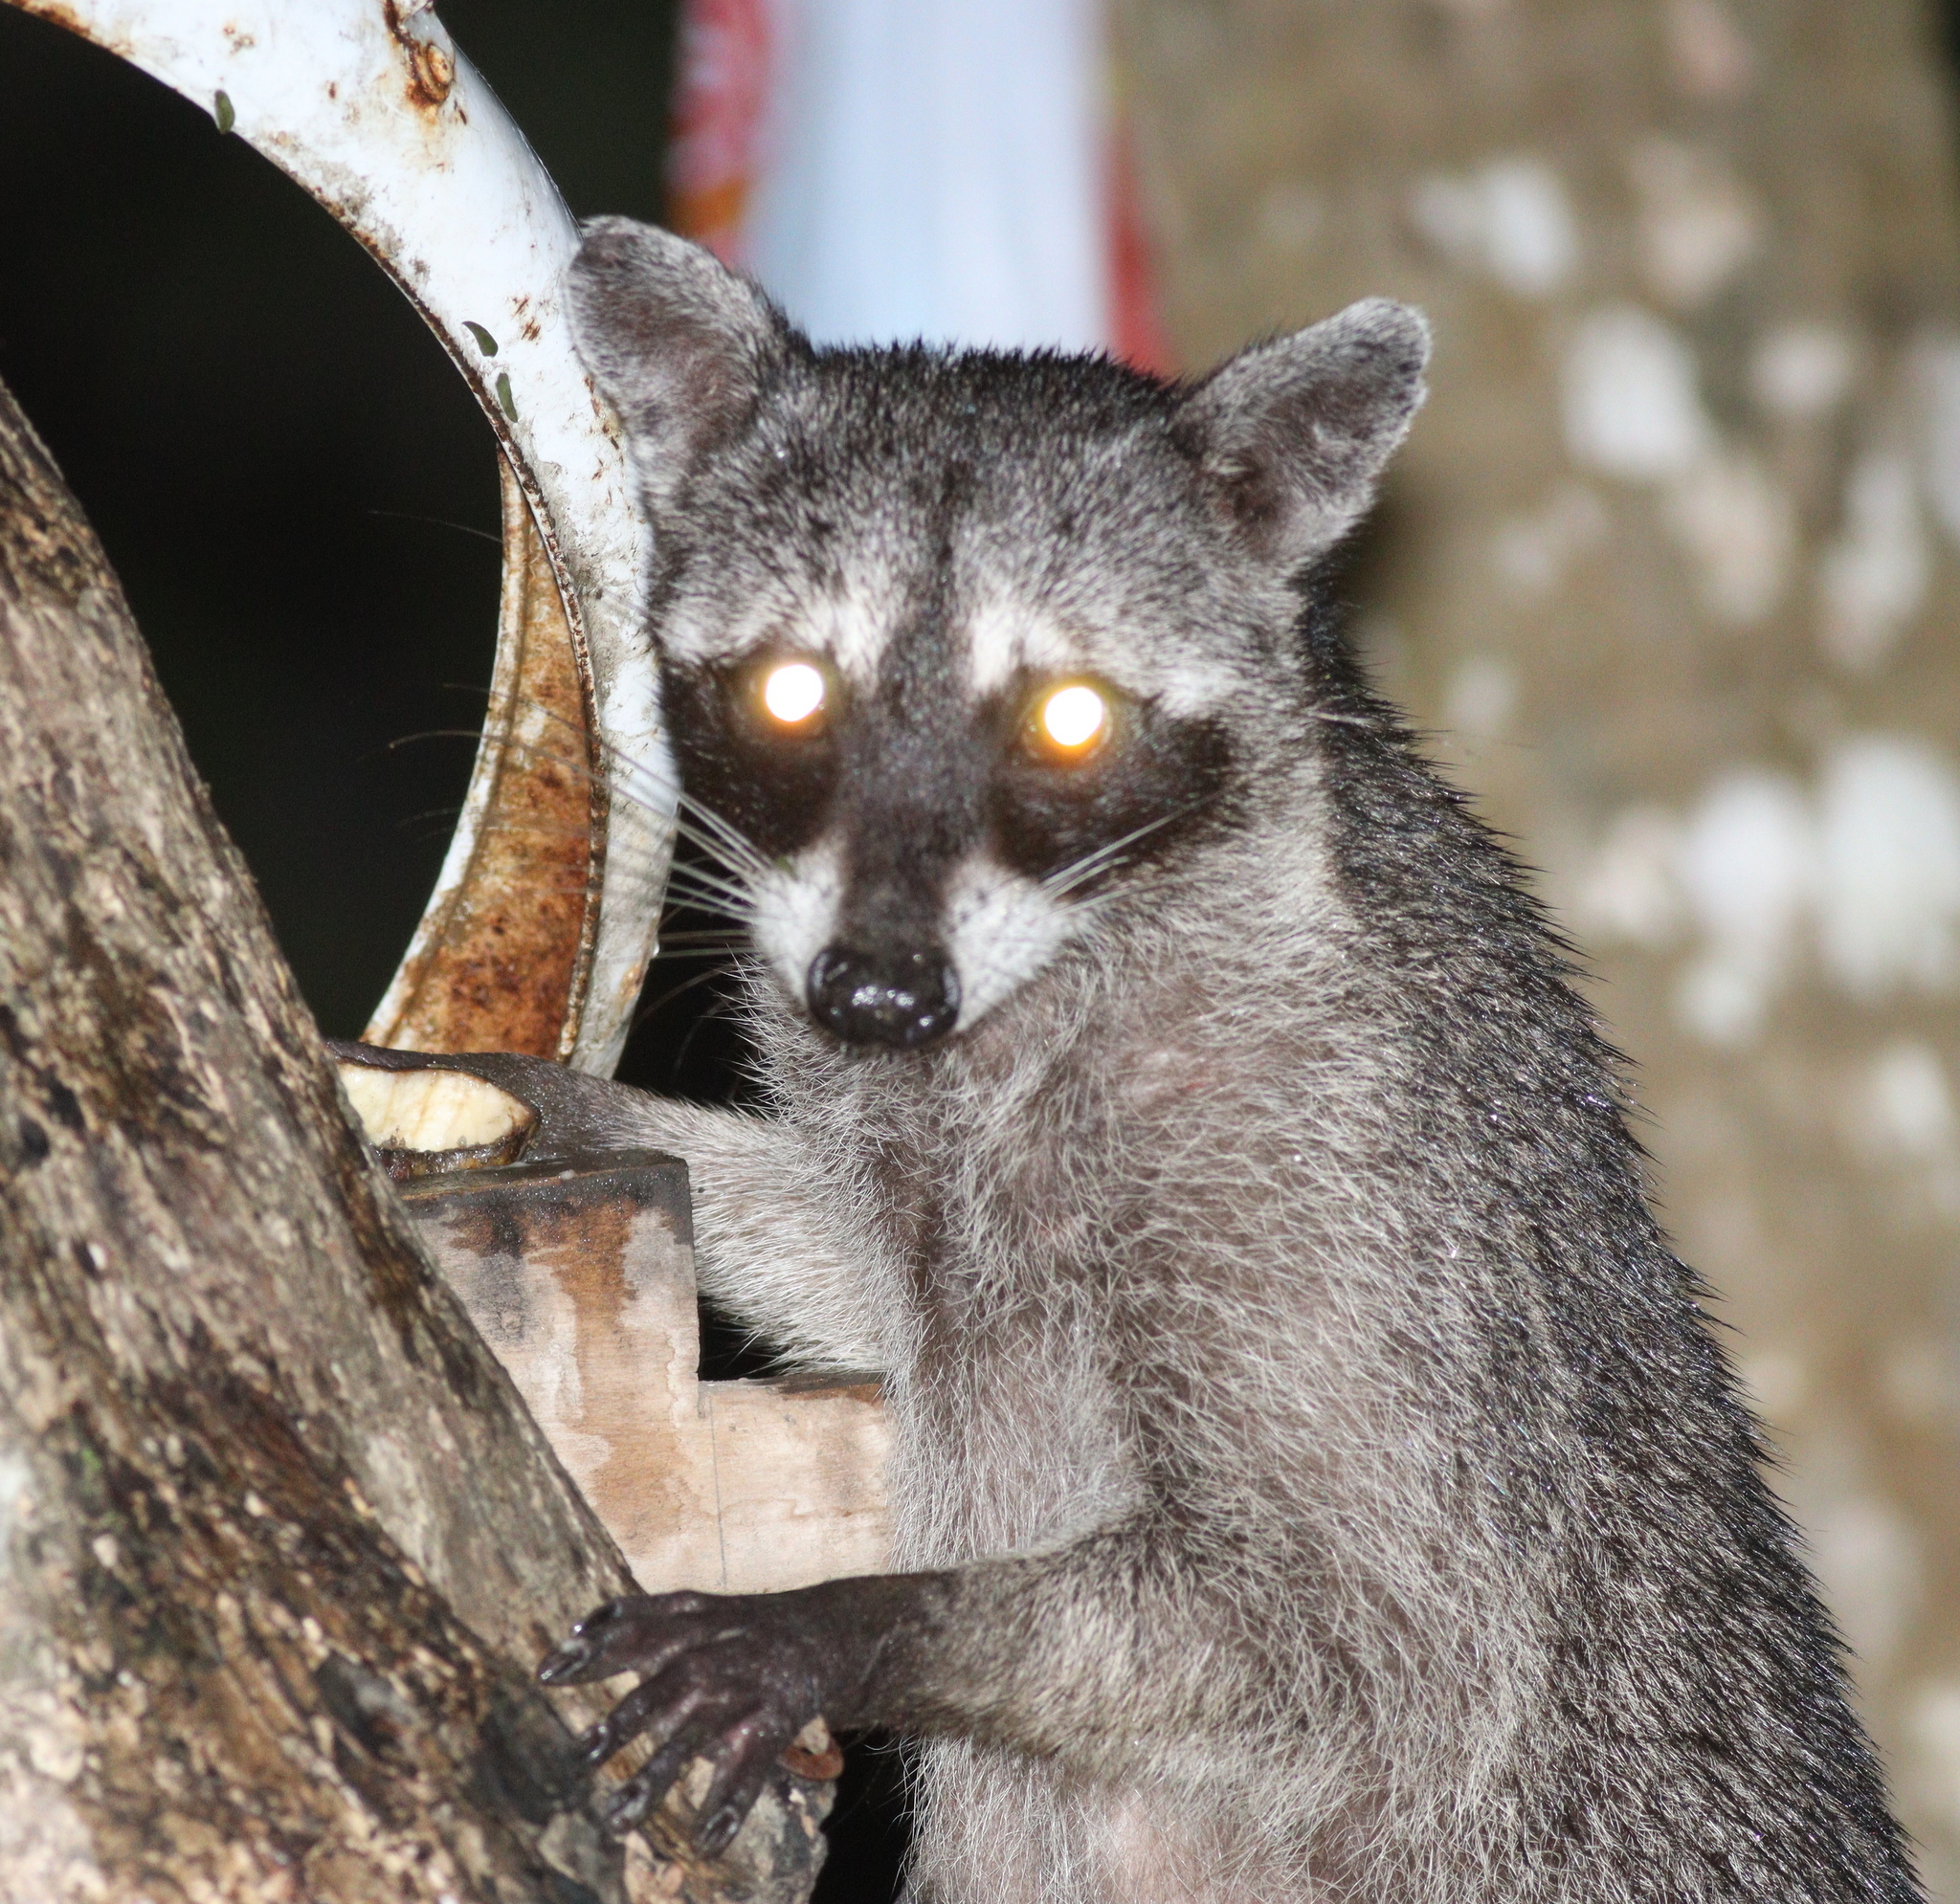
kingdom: Animalia
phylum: Chordata
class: Mammalia
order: Carnivora
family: Procyonidae
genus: Procyon
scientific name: Procyon lotor
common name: Raccoon
